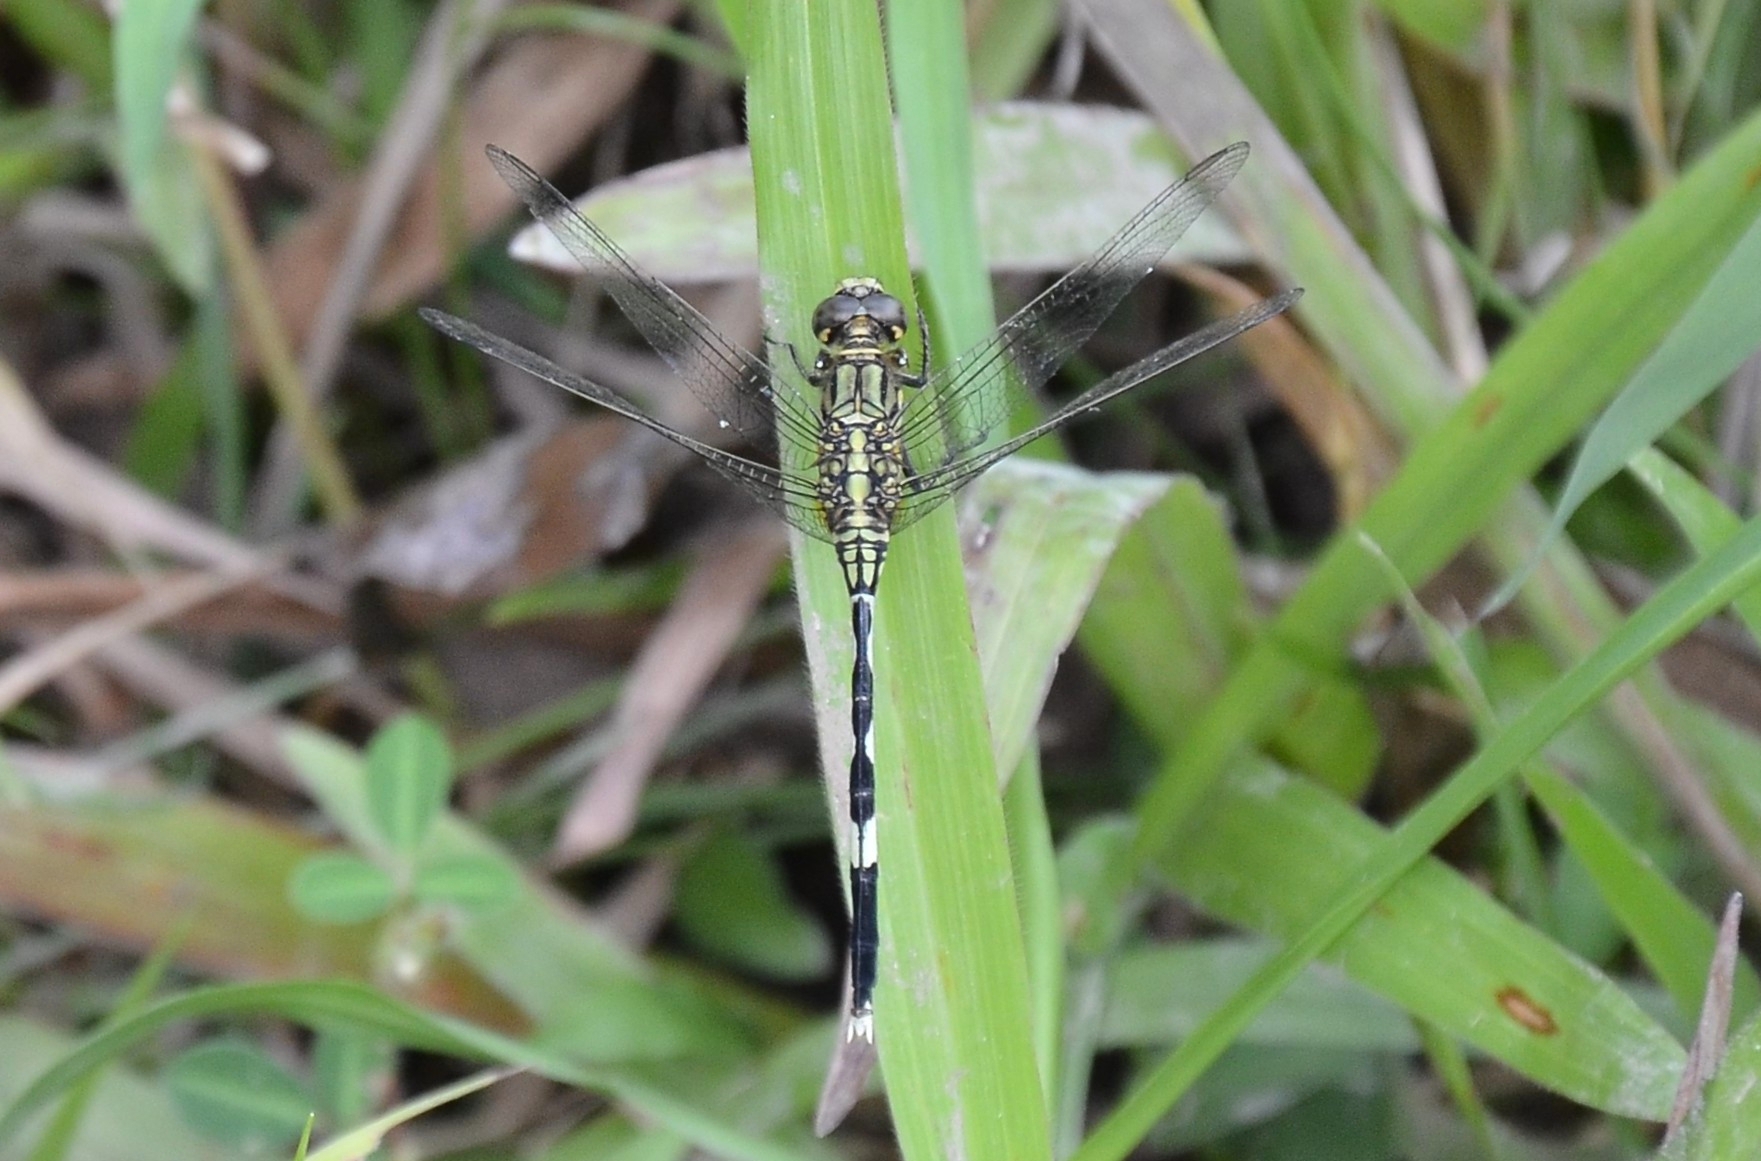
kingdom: Animalia
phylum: Arthropoda
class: Insecta
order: Odonata
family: Libellulidae
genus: Orthetrum
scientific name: Orthetrum sabina
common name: Slender skimmer
